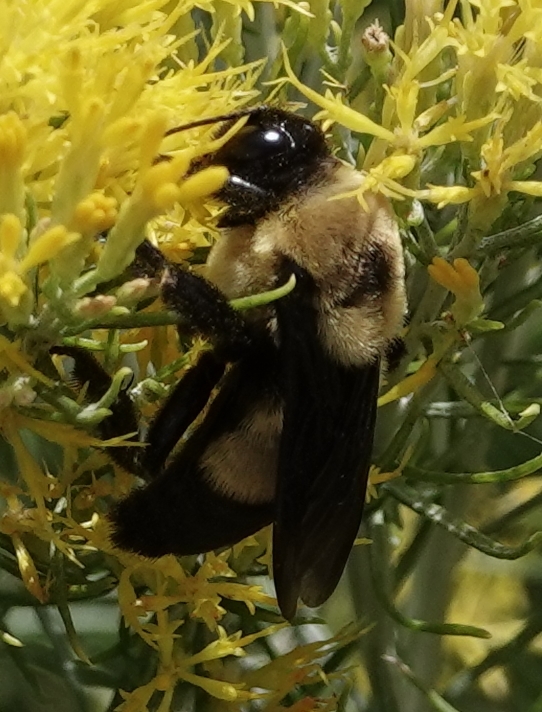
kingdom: Animalia
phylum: Arthropoda
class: Insecta
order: Hymenoptera
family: Apidae
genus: Bombus
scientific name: Bombus fraternus
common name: Southern plains bumble bee
